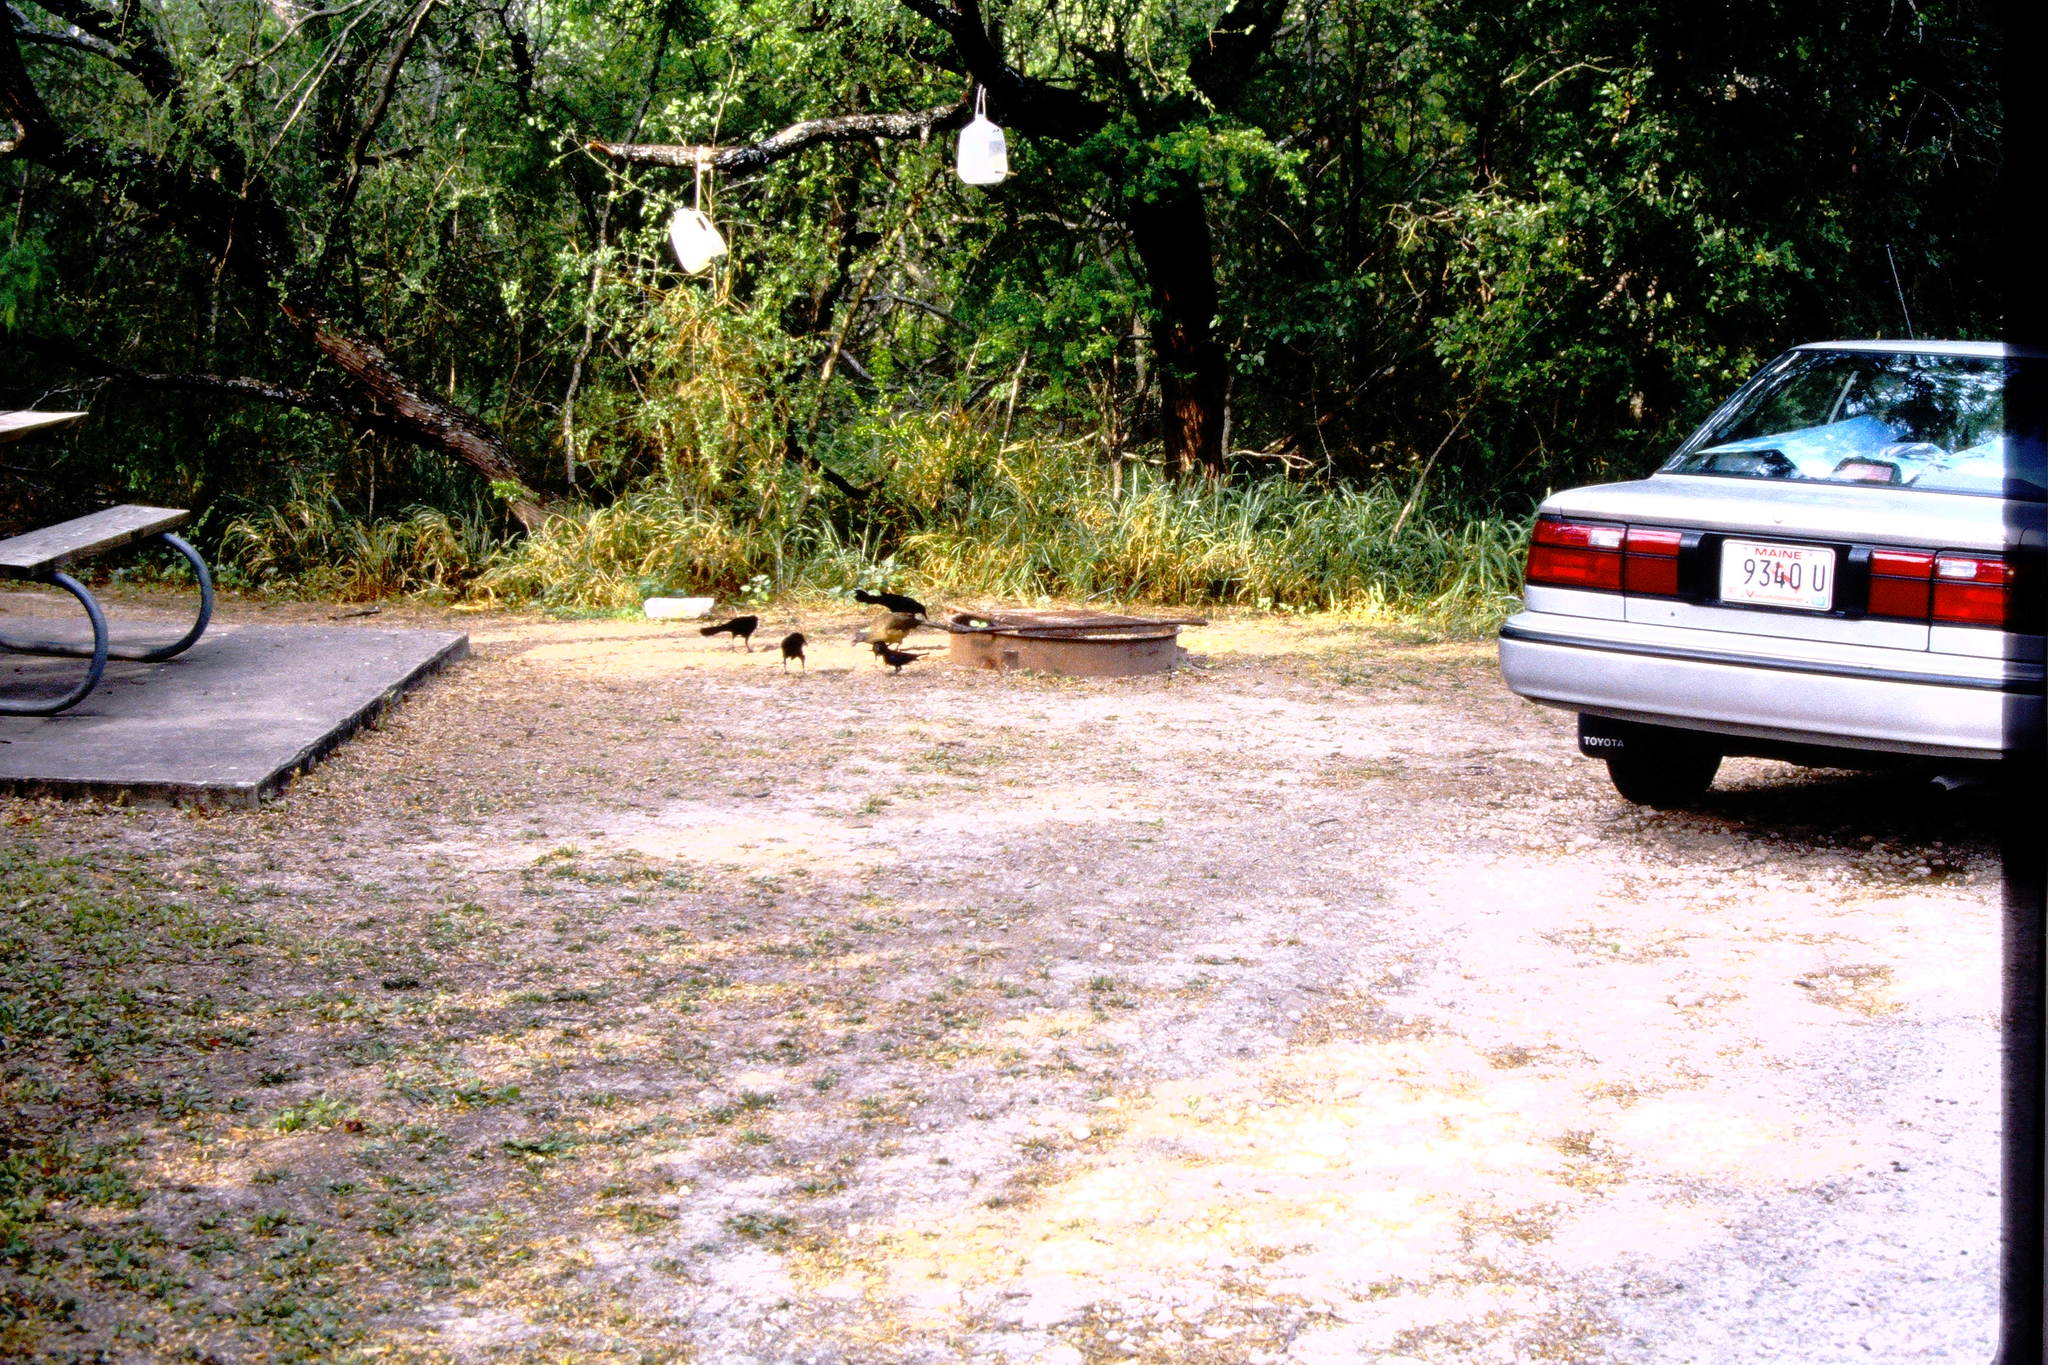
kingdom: Animalia
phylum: Chordata
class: Aves
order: Galliformes
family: Cracidae
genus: Ortalis
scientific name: Ortalis vetula
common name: Plain chachalaca
